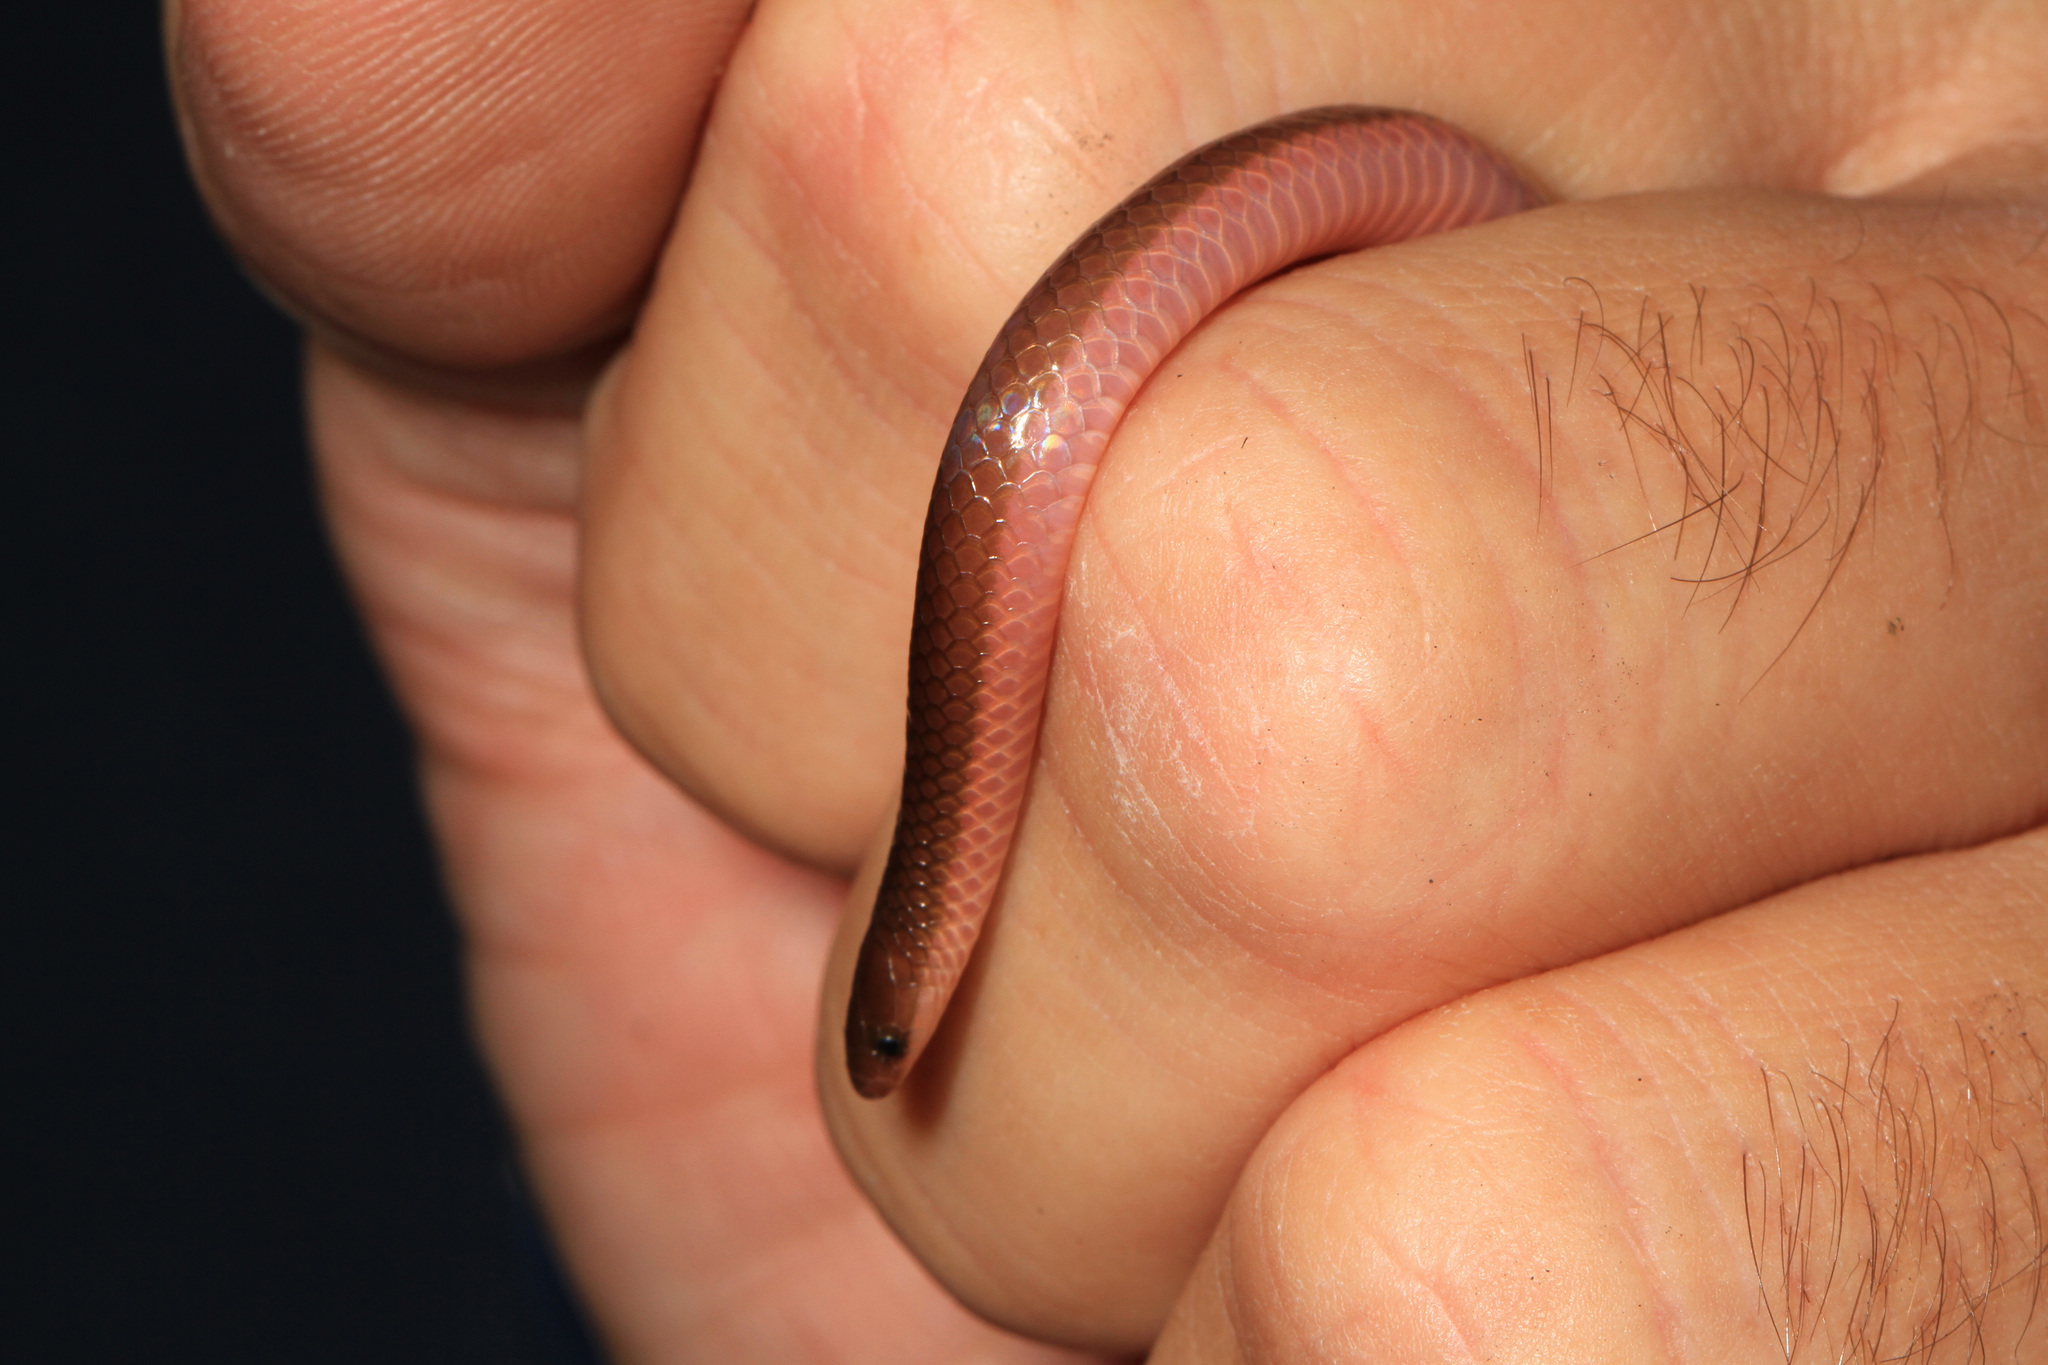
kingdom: Animalia
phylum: Chordata
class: Squamata
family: Colubridae
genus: Carphophis
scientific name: Carphophis amoenus
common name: Eastern worm snake
